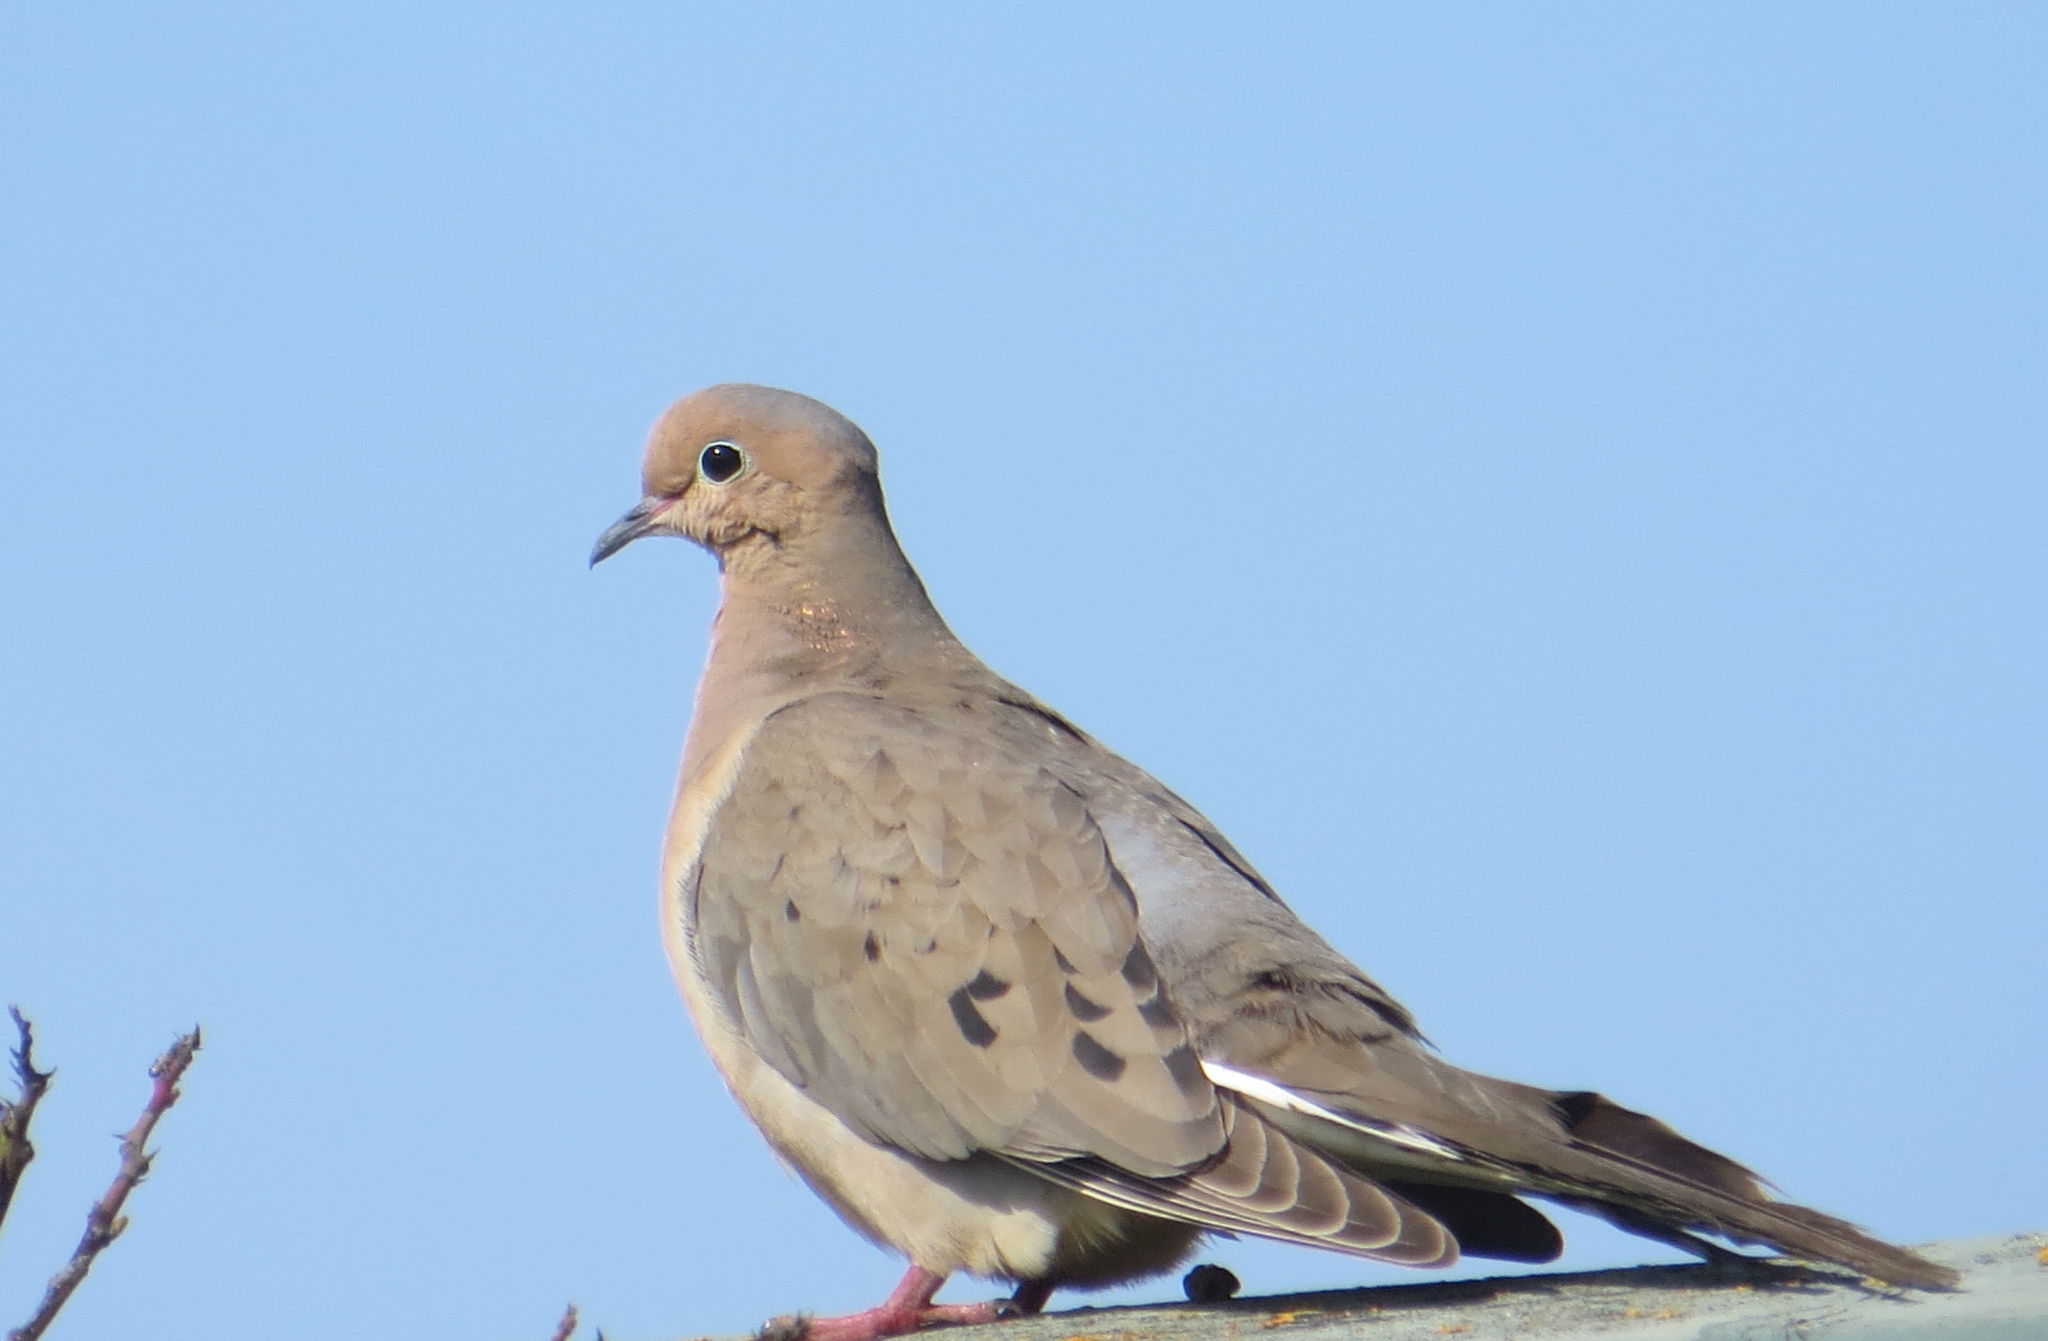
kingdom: Animalia
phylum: Chordata
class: Aves
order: Columbiformes
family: Columbidae
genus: Zenaida
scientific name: Zenaida macroura
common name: Mourning dove
